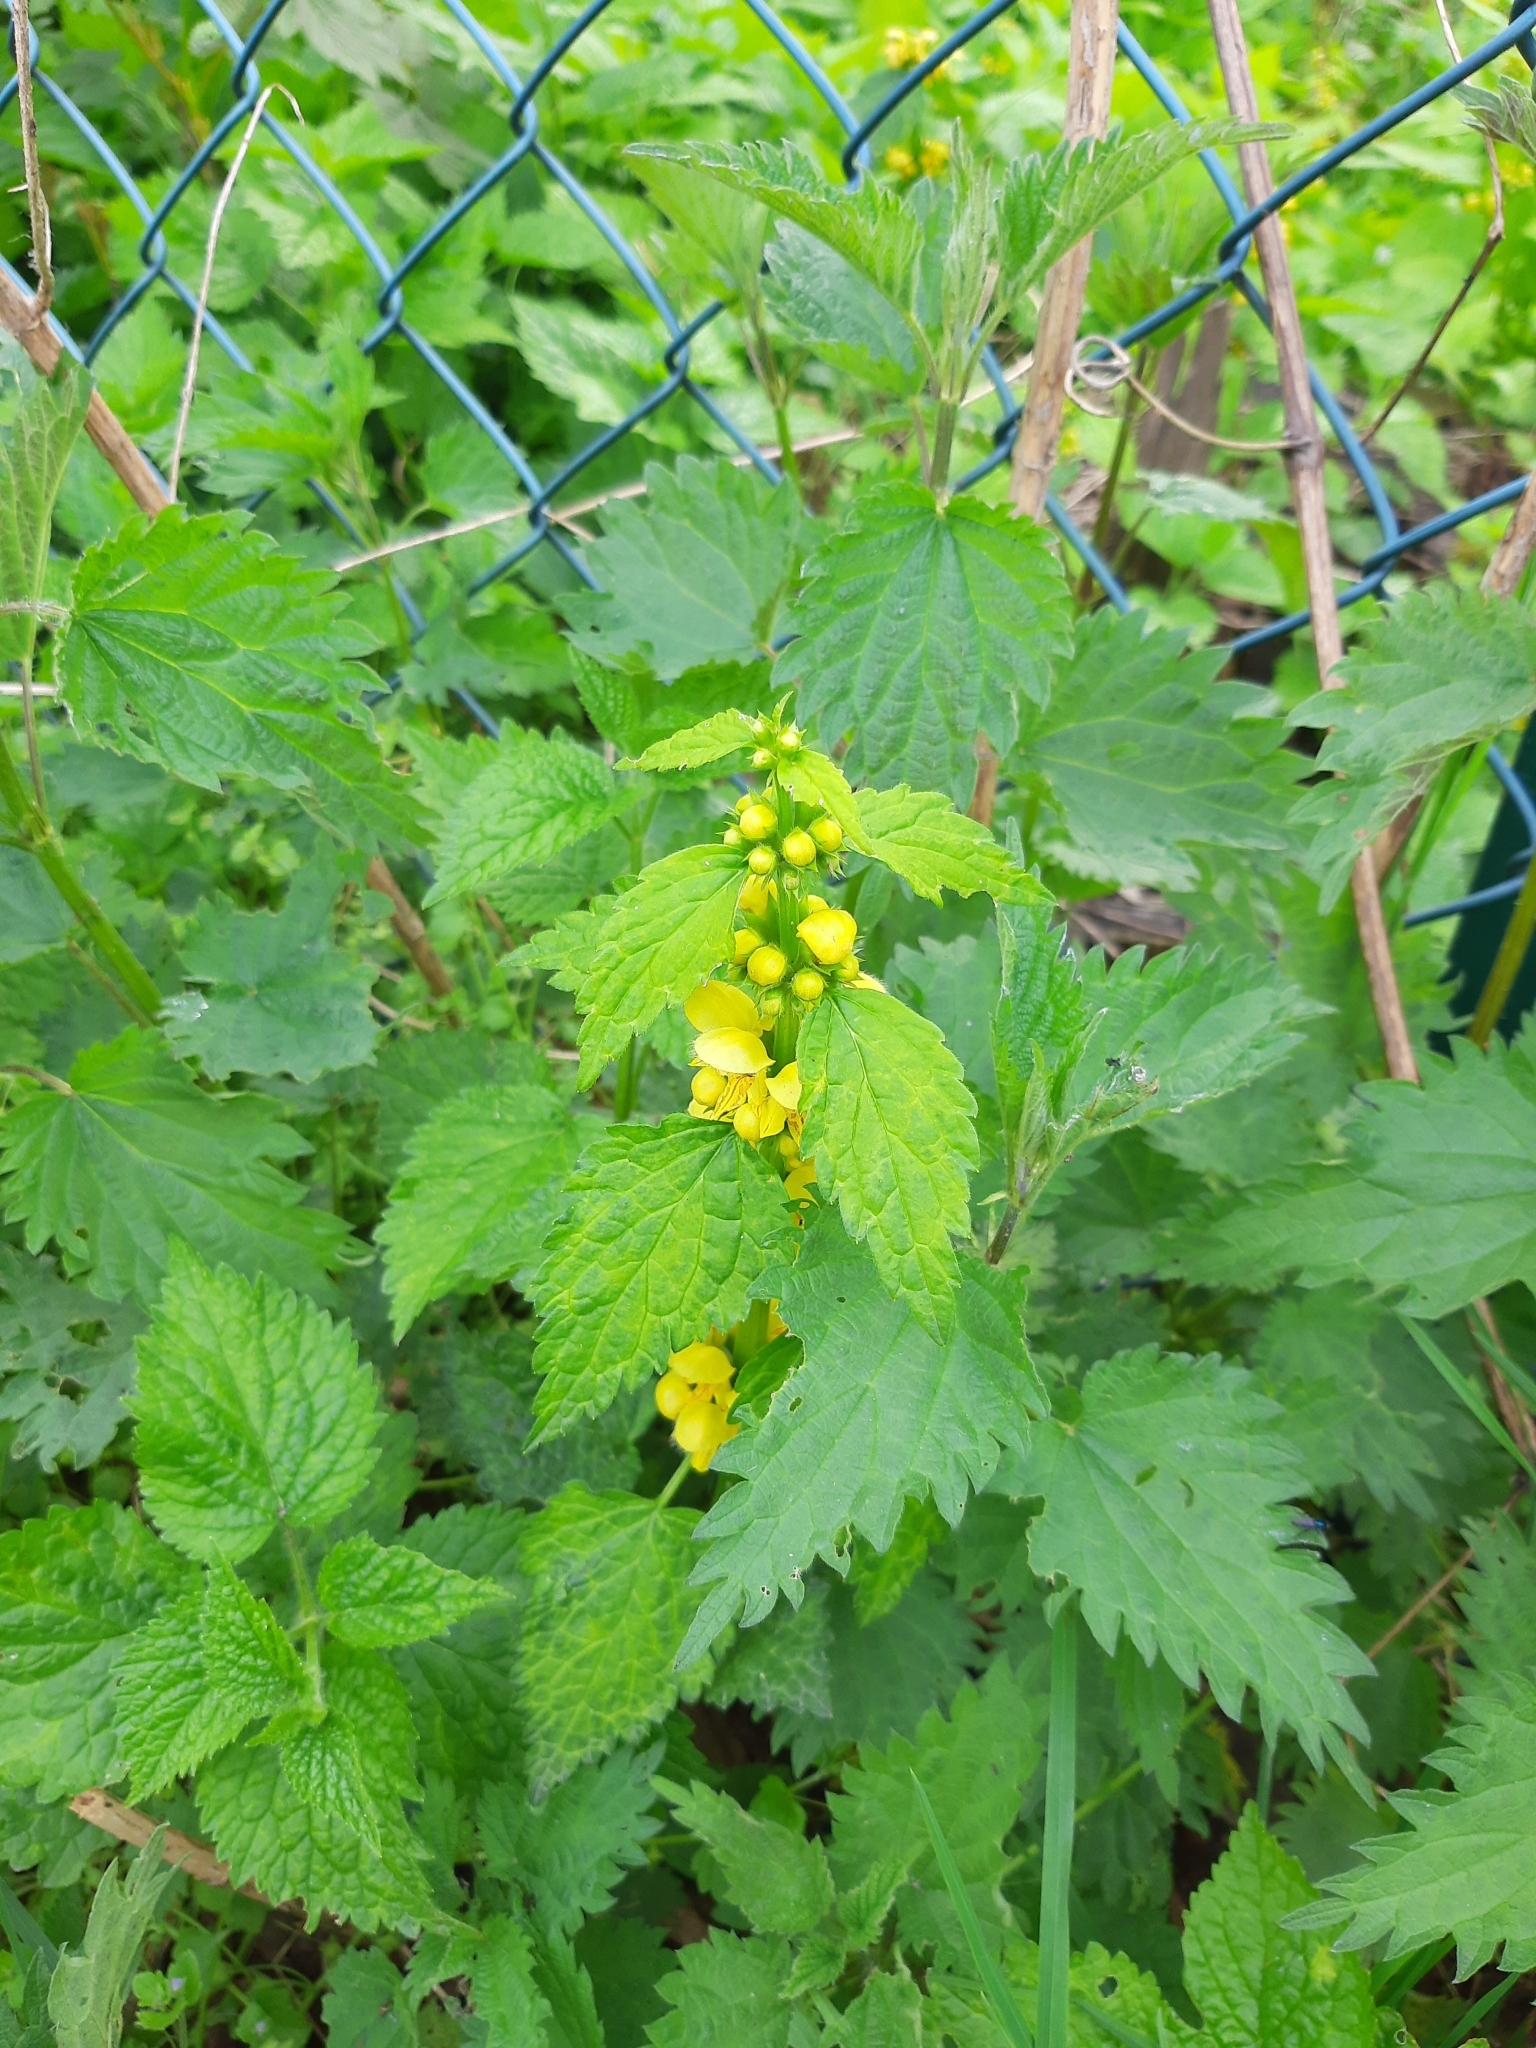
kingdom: Plantae
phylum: Tracheophyta
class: Magnoliopsida
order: Lamiales
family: Lamiaceae
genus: Lamium
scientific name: Lamium galeobdolon
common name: Yellow archangel
